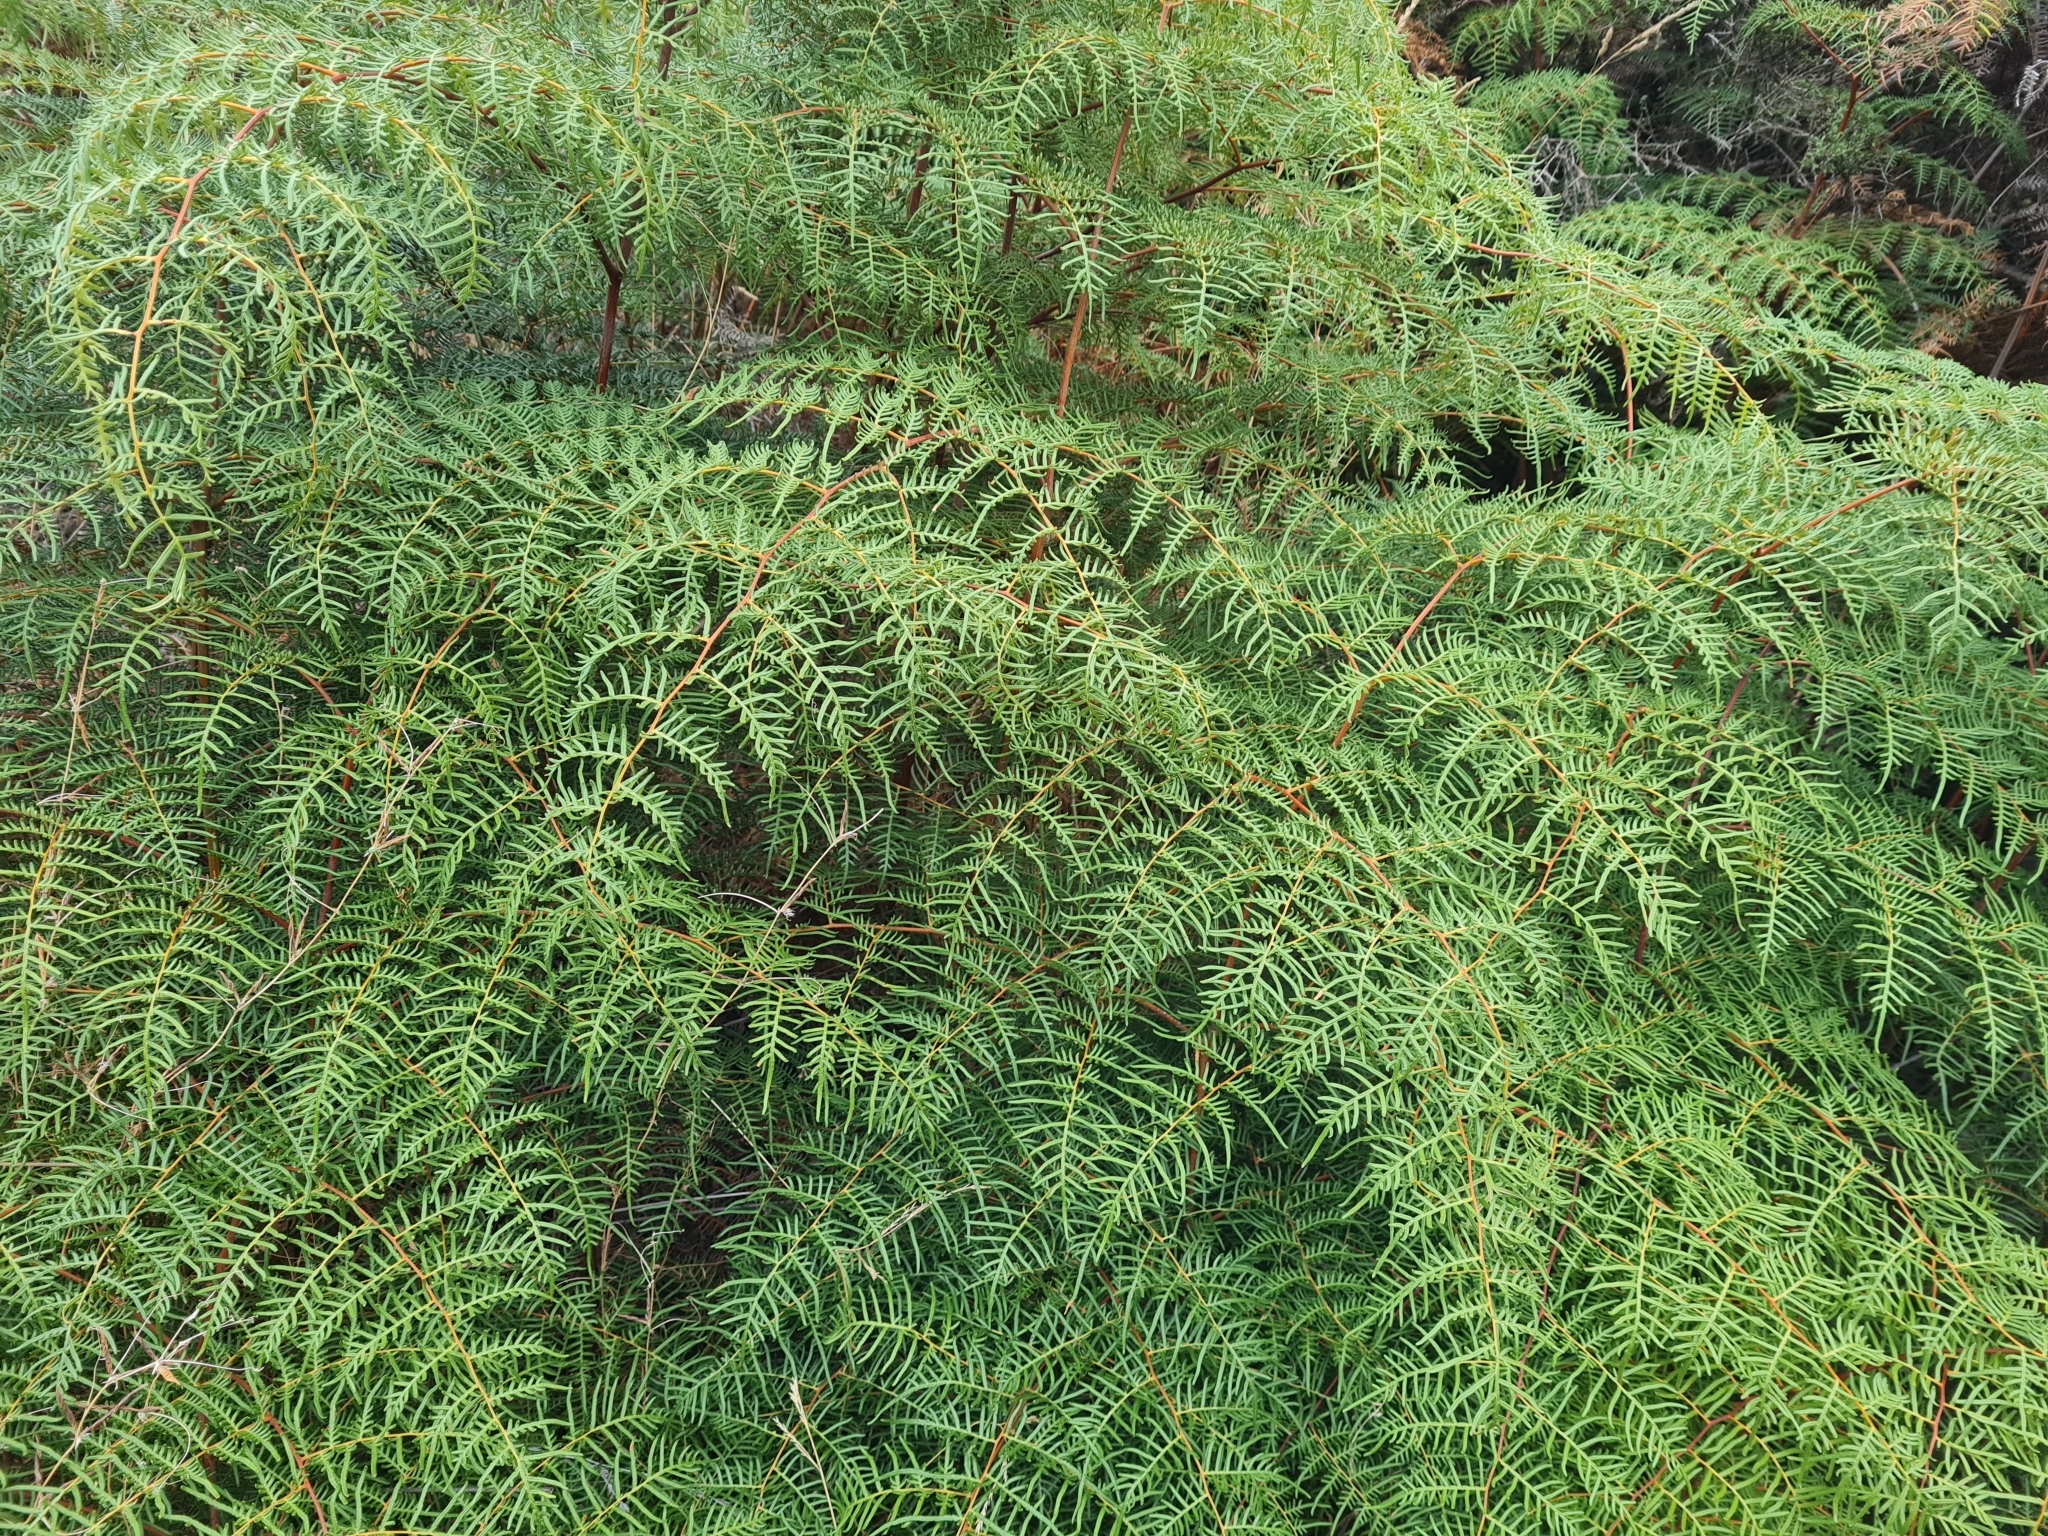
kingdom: Plantae
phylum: Tracheophyta
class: Polypodiopsida
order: Polypodiales
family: Dennstaedtiaceae
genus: Pteridium
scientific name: Pteridium esculentum
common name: Bracken fern
